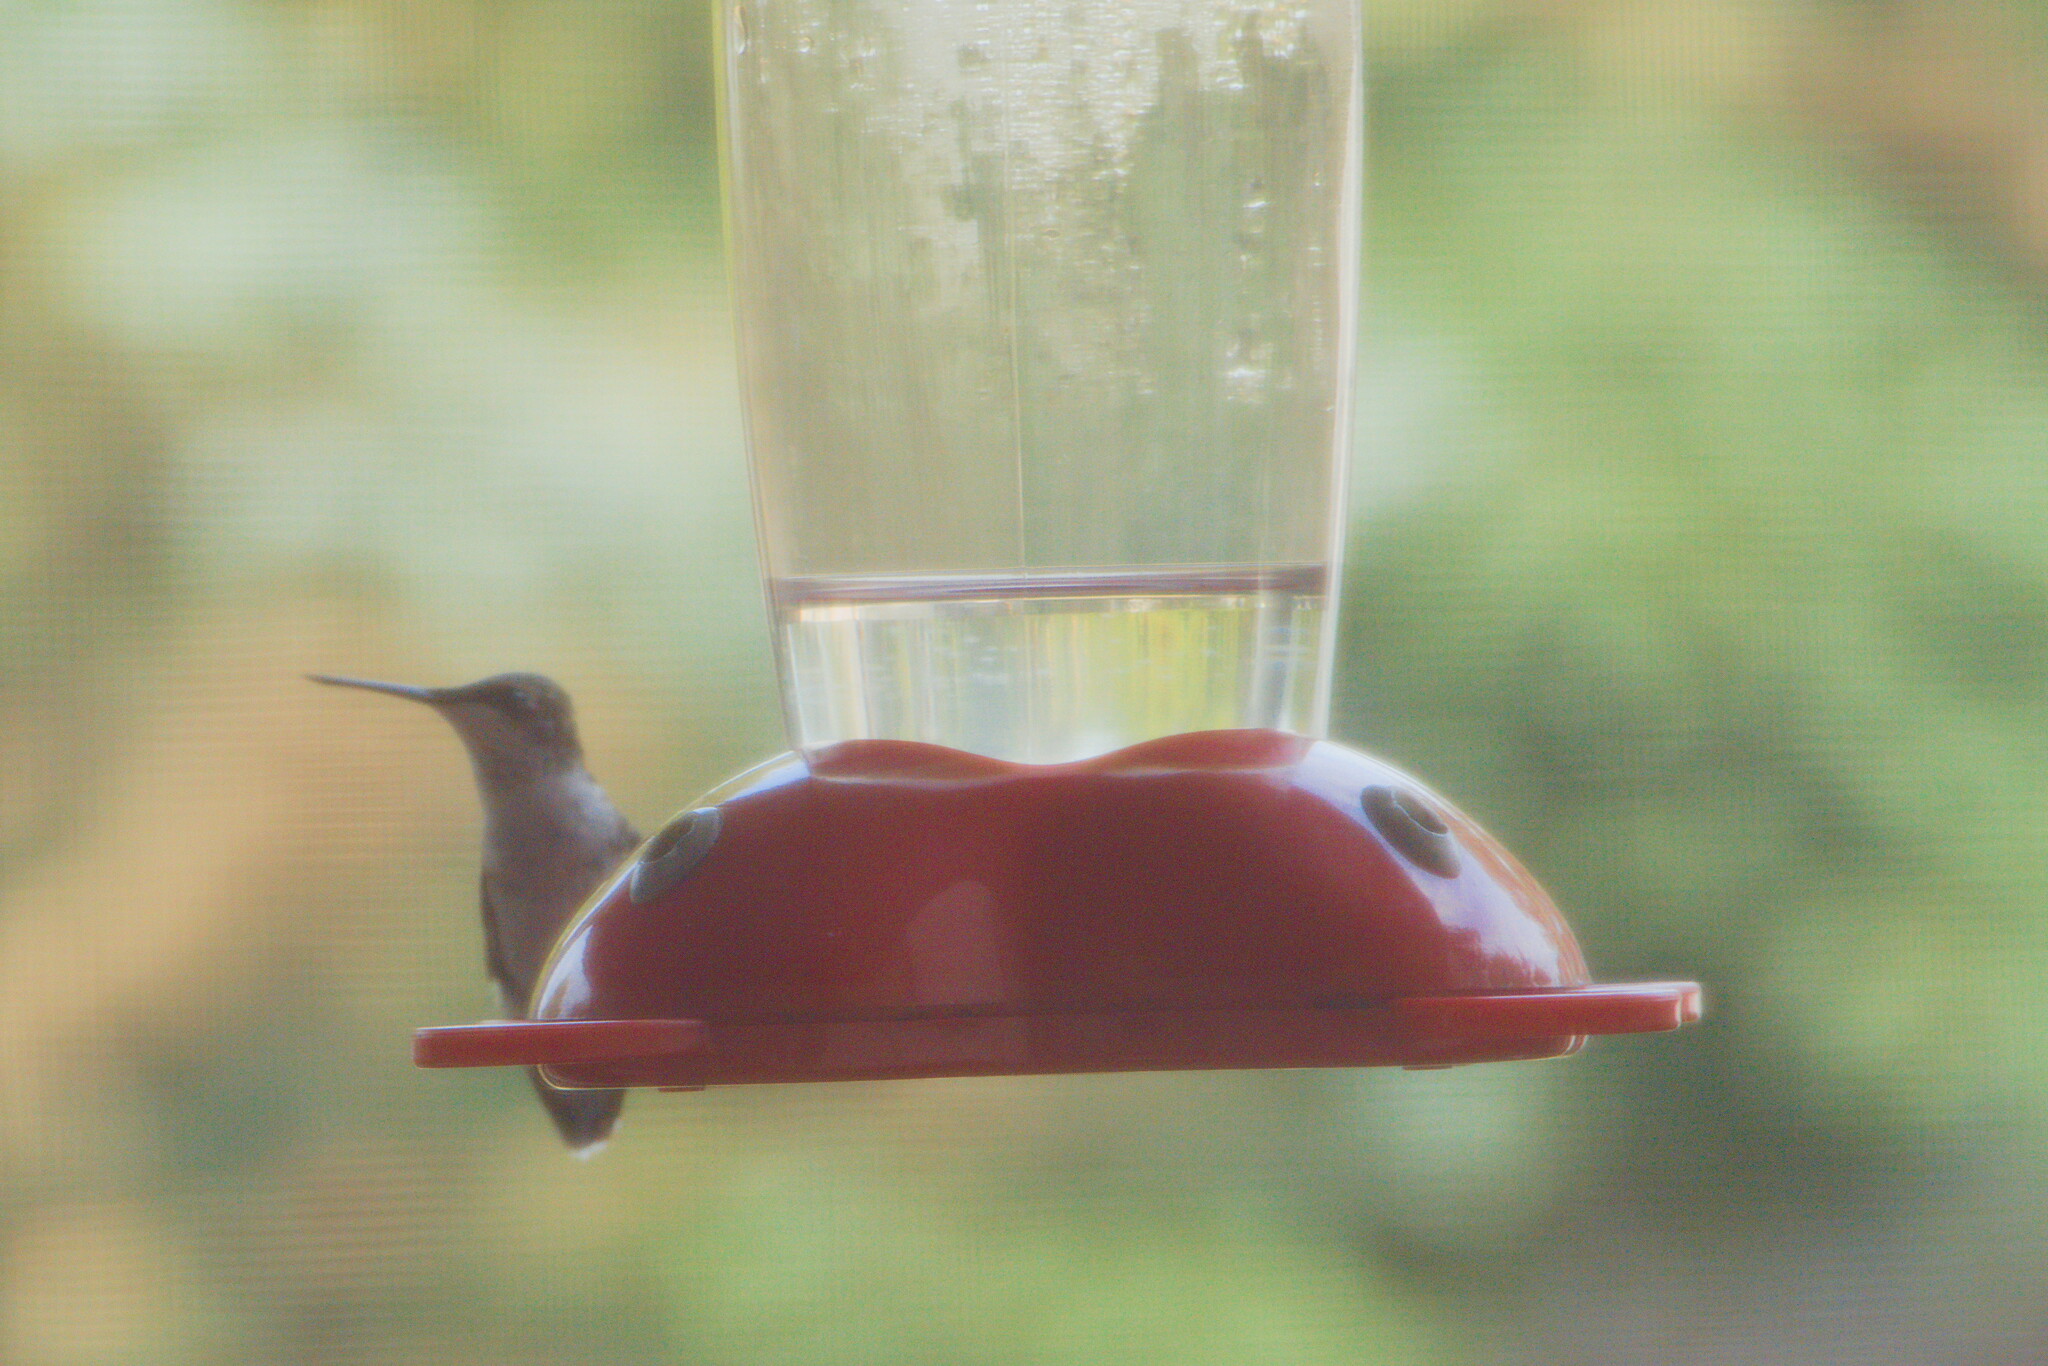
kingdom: Animalia
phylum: Chordata
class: Aves
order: Apodiformes
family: Trochilidae
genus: Archilochus
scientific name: Archilochus colubris
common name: Ruby-throated hummingbird
